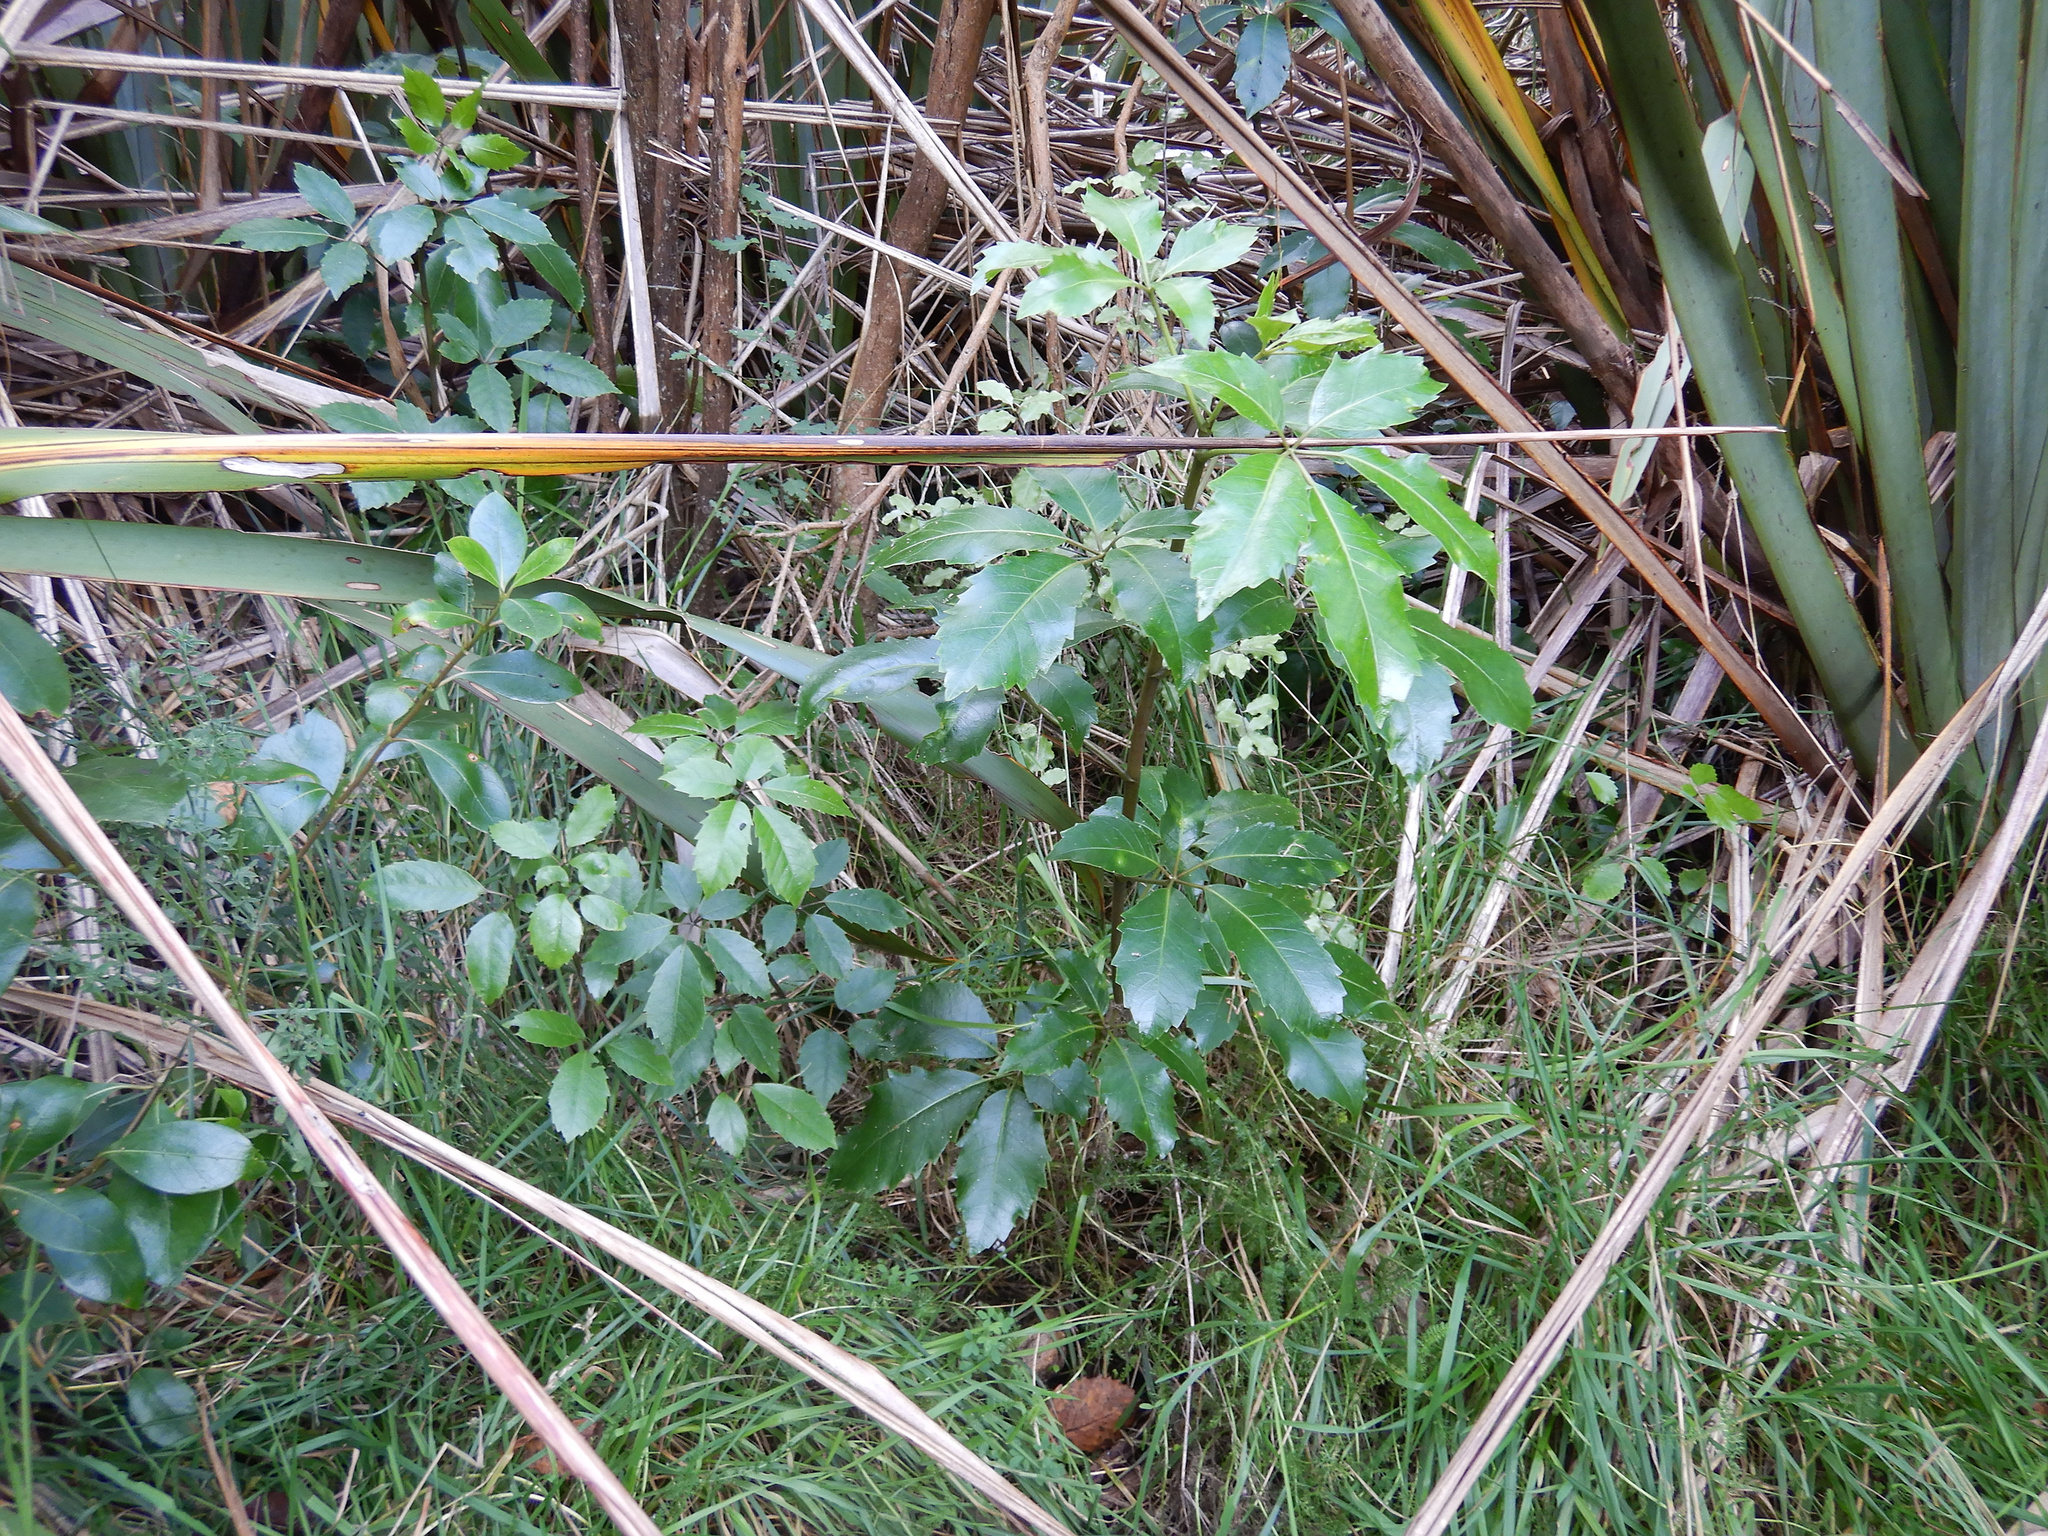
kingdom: Plantae
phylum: Tracheophyta
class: Magnoliopsida
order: Apiales
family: Araliaceae
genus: Neopanax
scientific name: Neopanax arboreus
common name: Five-fingers
